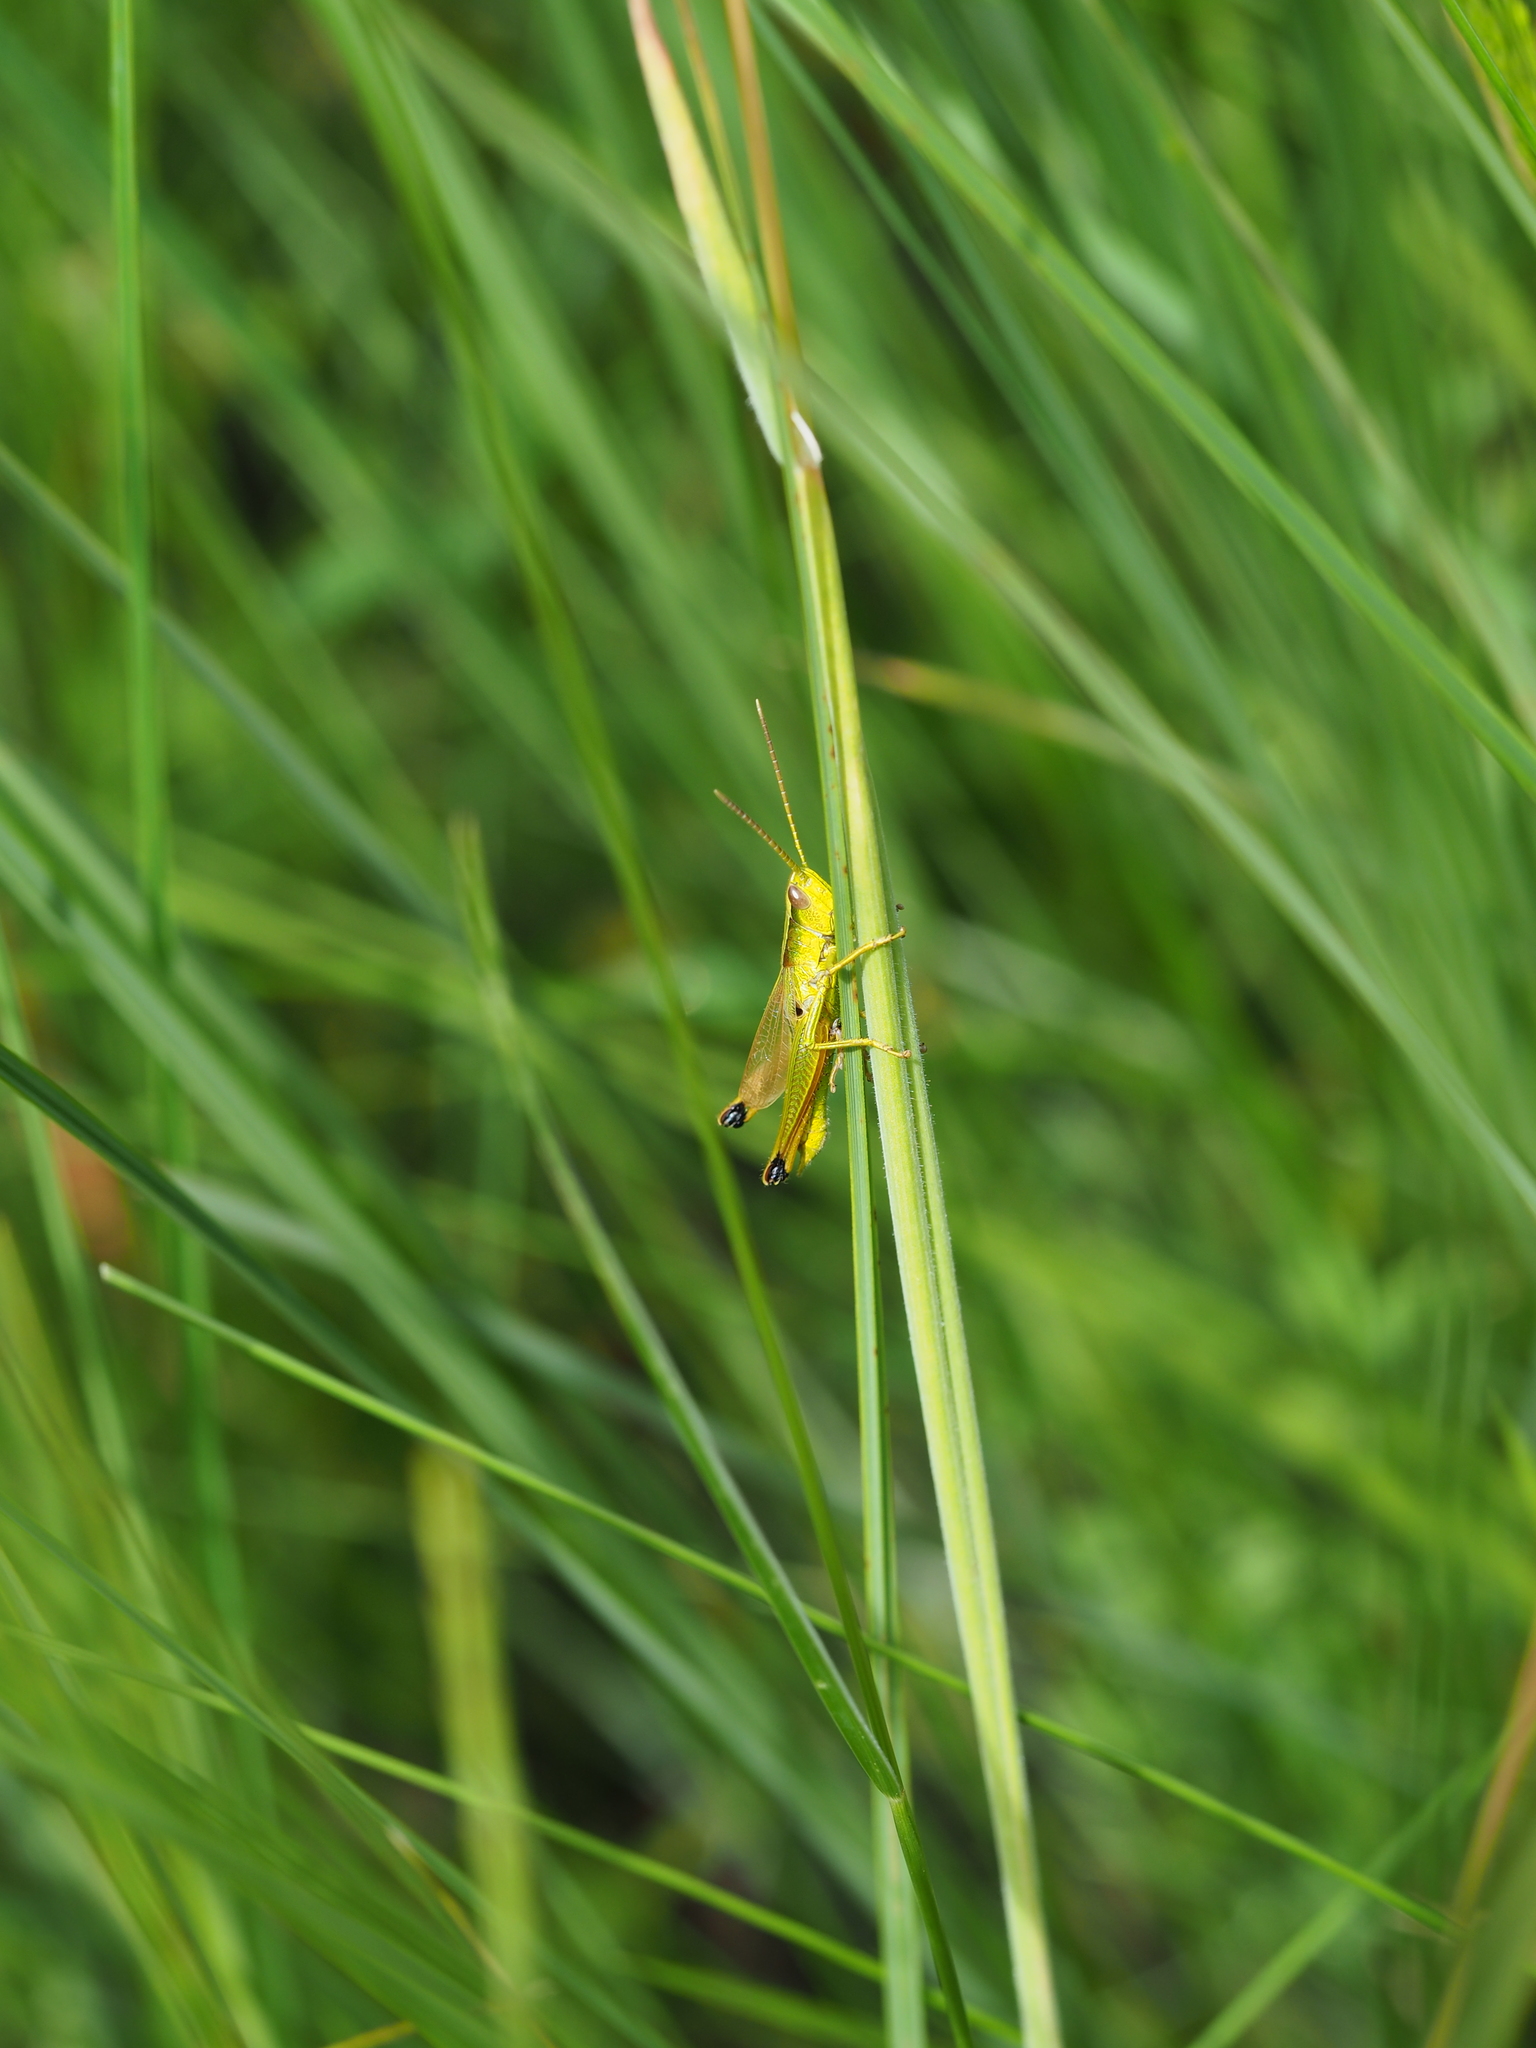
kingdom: Animalia
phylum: Arthropoda
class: Insecta
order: Orthoptera
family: Acrididae
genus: Chrysochraon
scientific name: Chrysochraon dispar
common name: Large gold grasshopper
